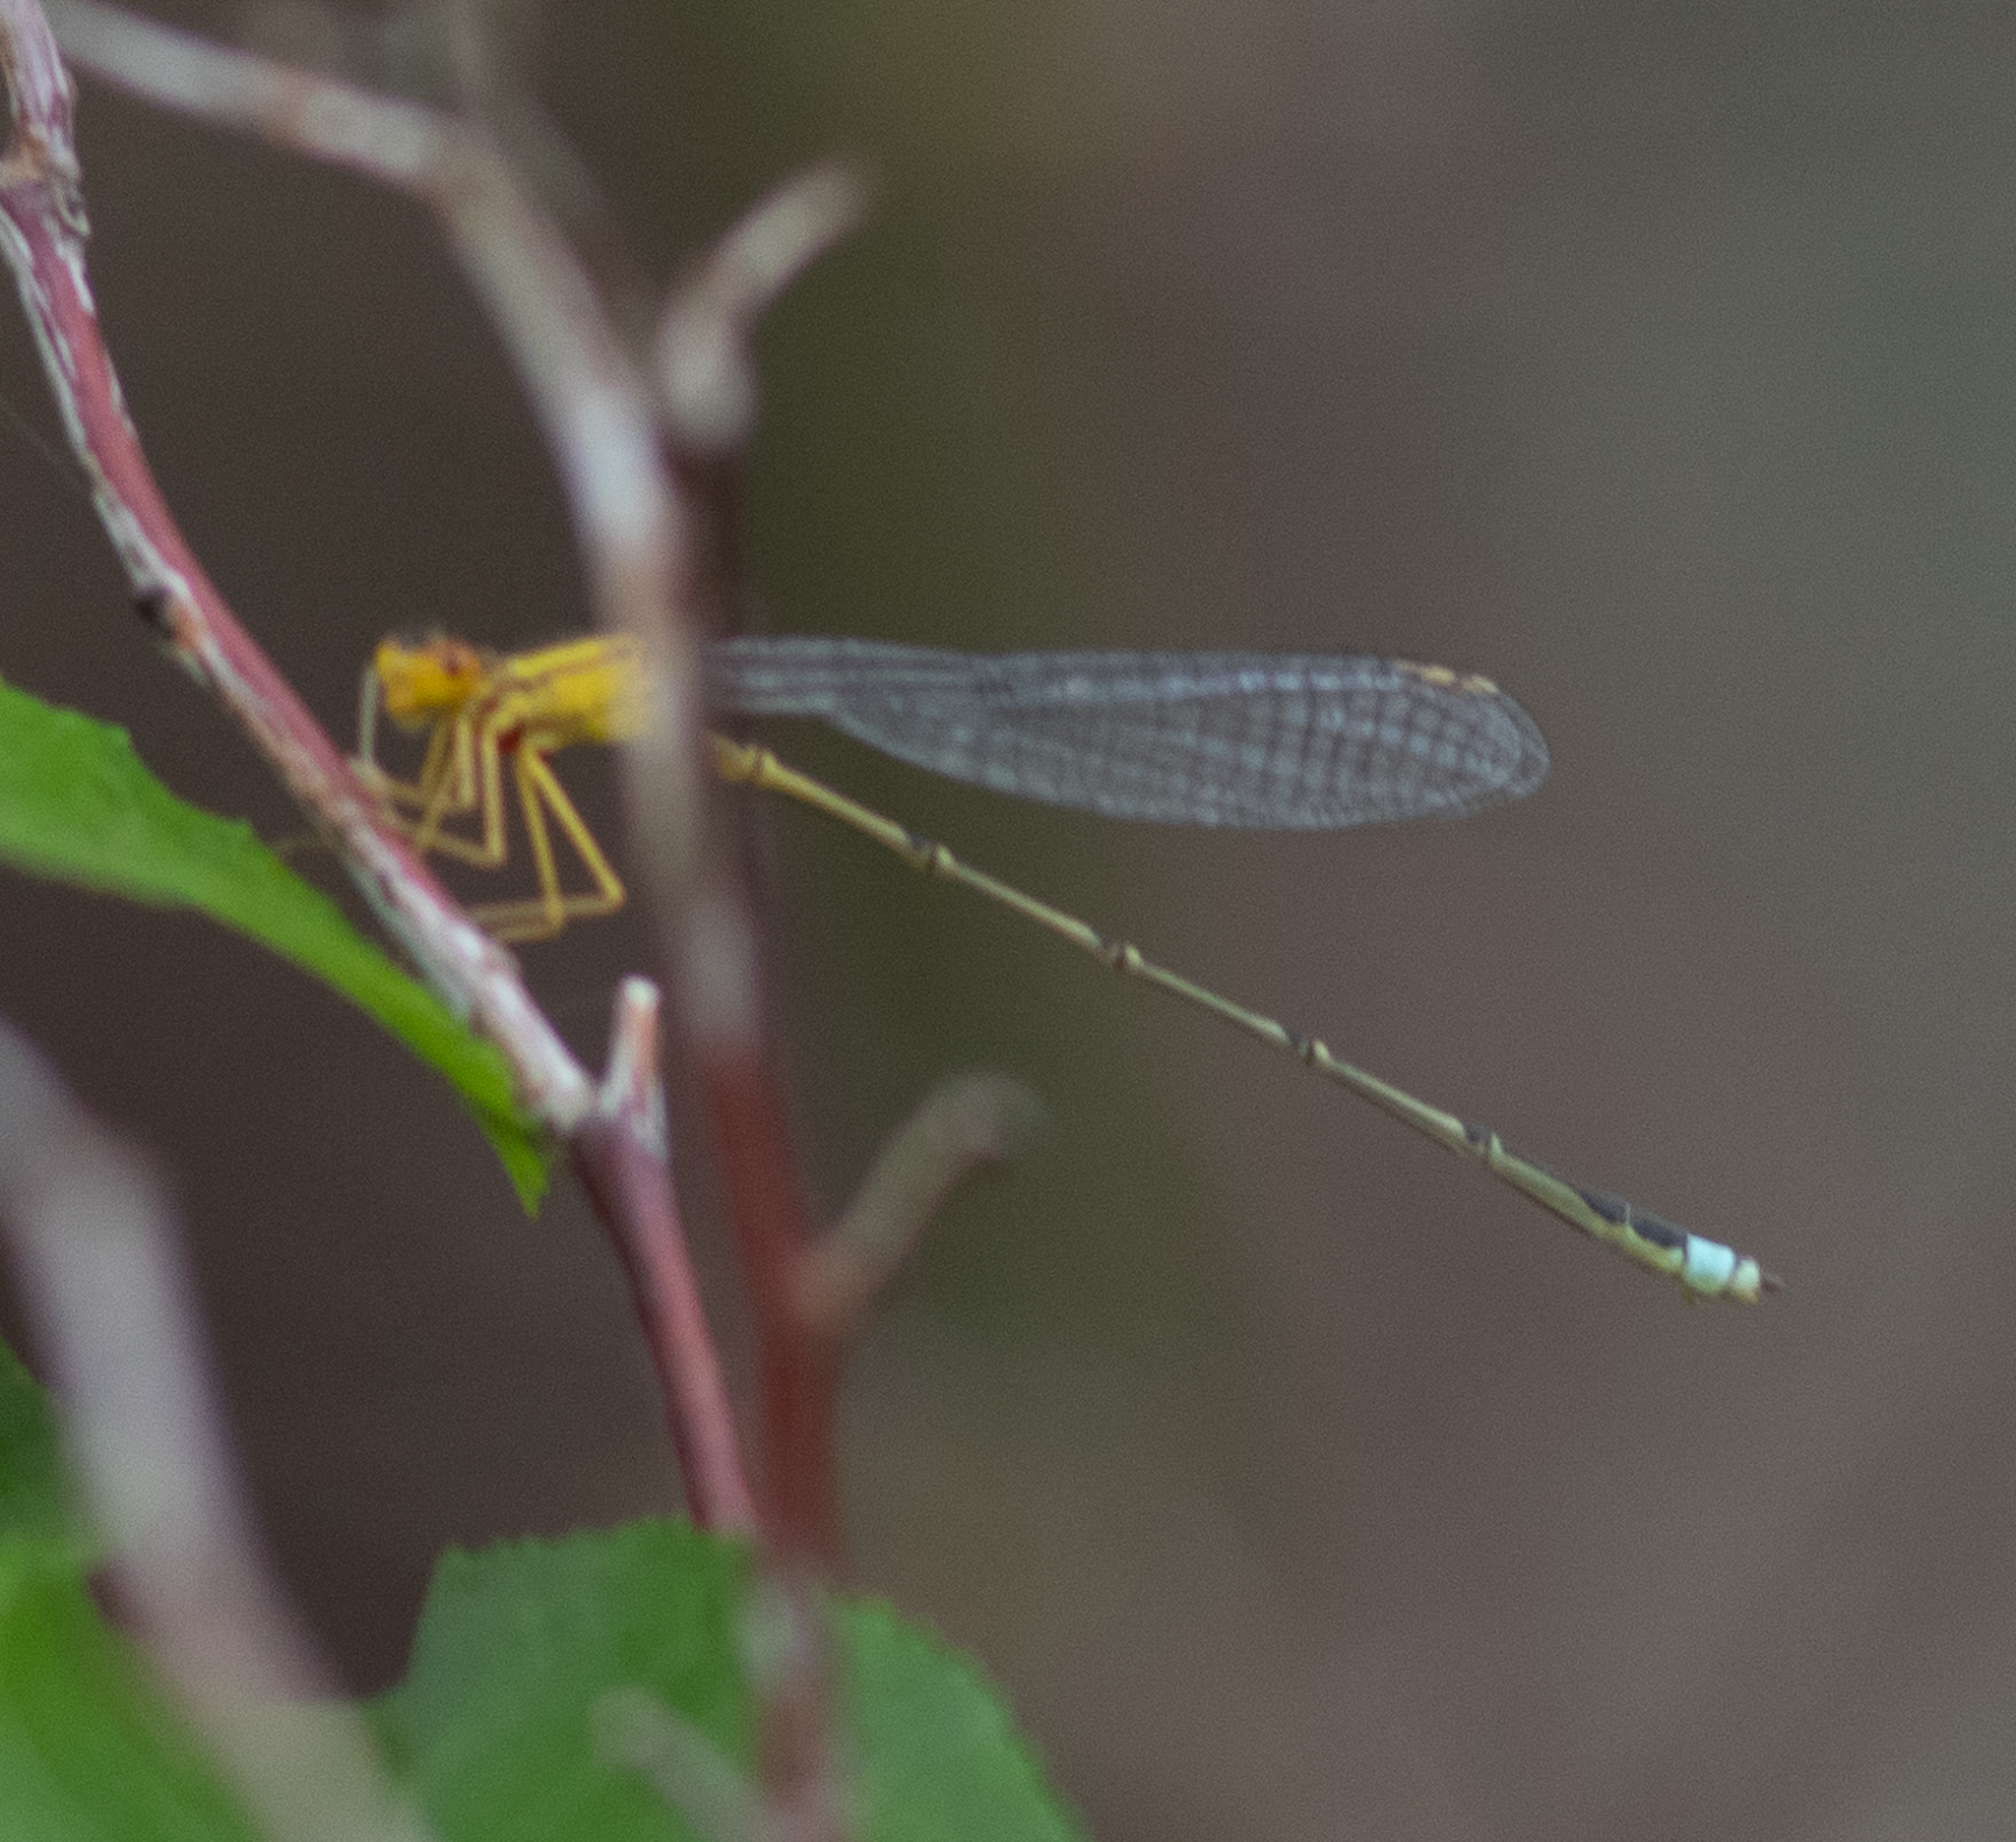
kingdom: Animalia
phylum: Arthropoda
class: Insecta
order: Odonata
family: Coenagrionidae
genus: Enallagma
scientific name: Enallagma vesperum
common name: Vesper bluet
